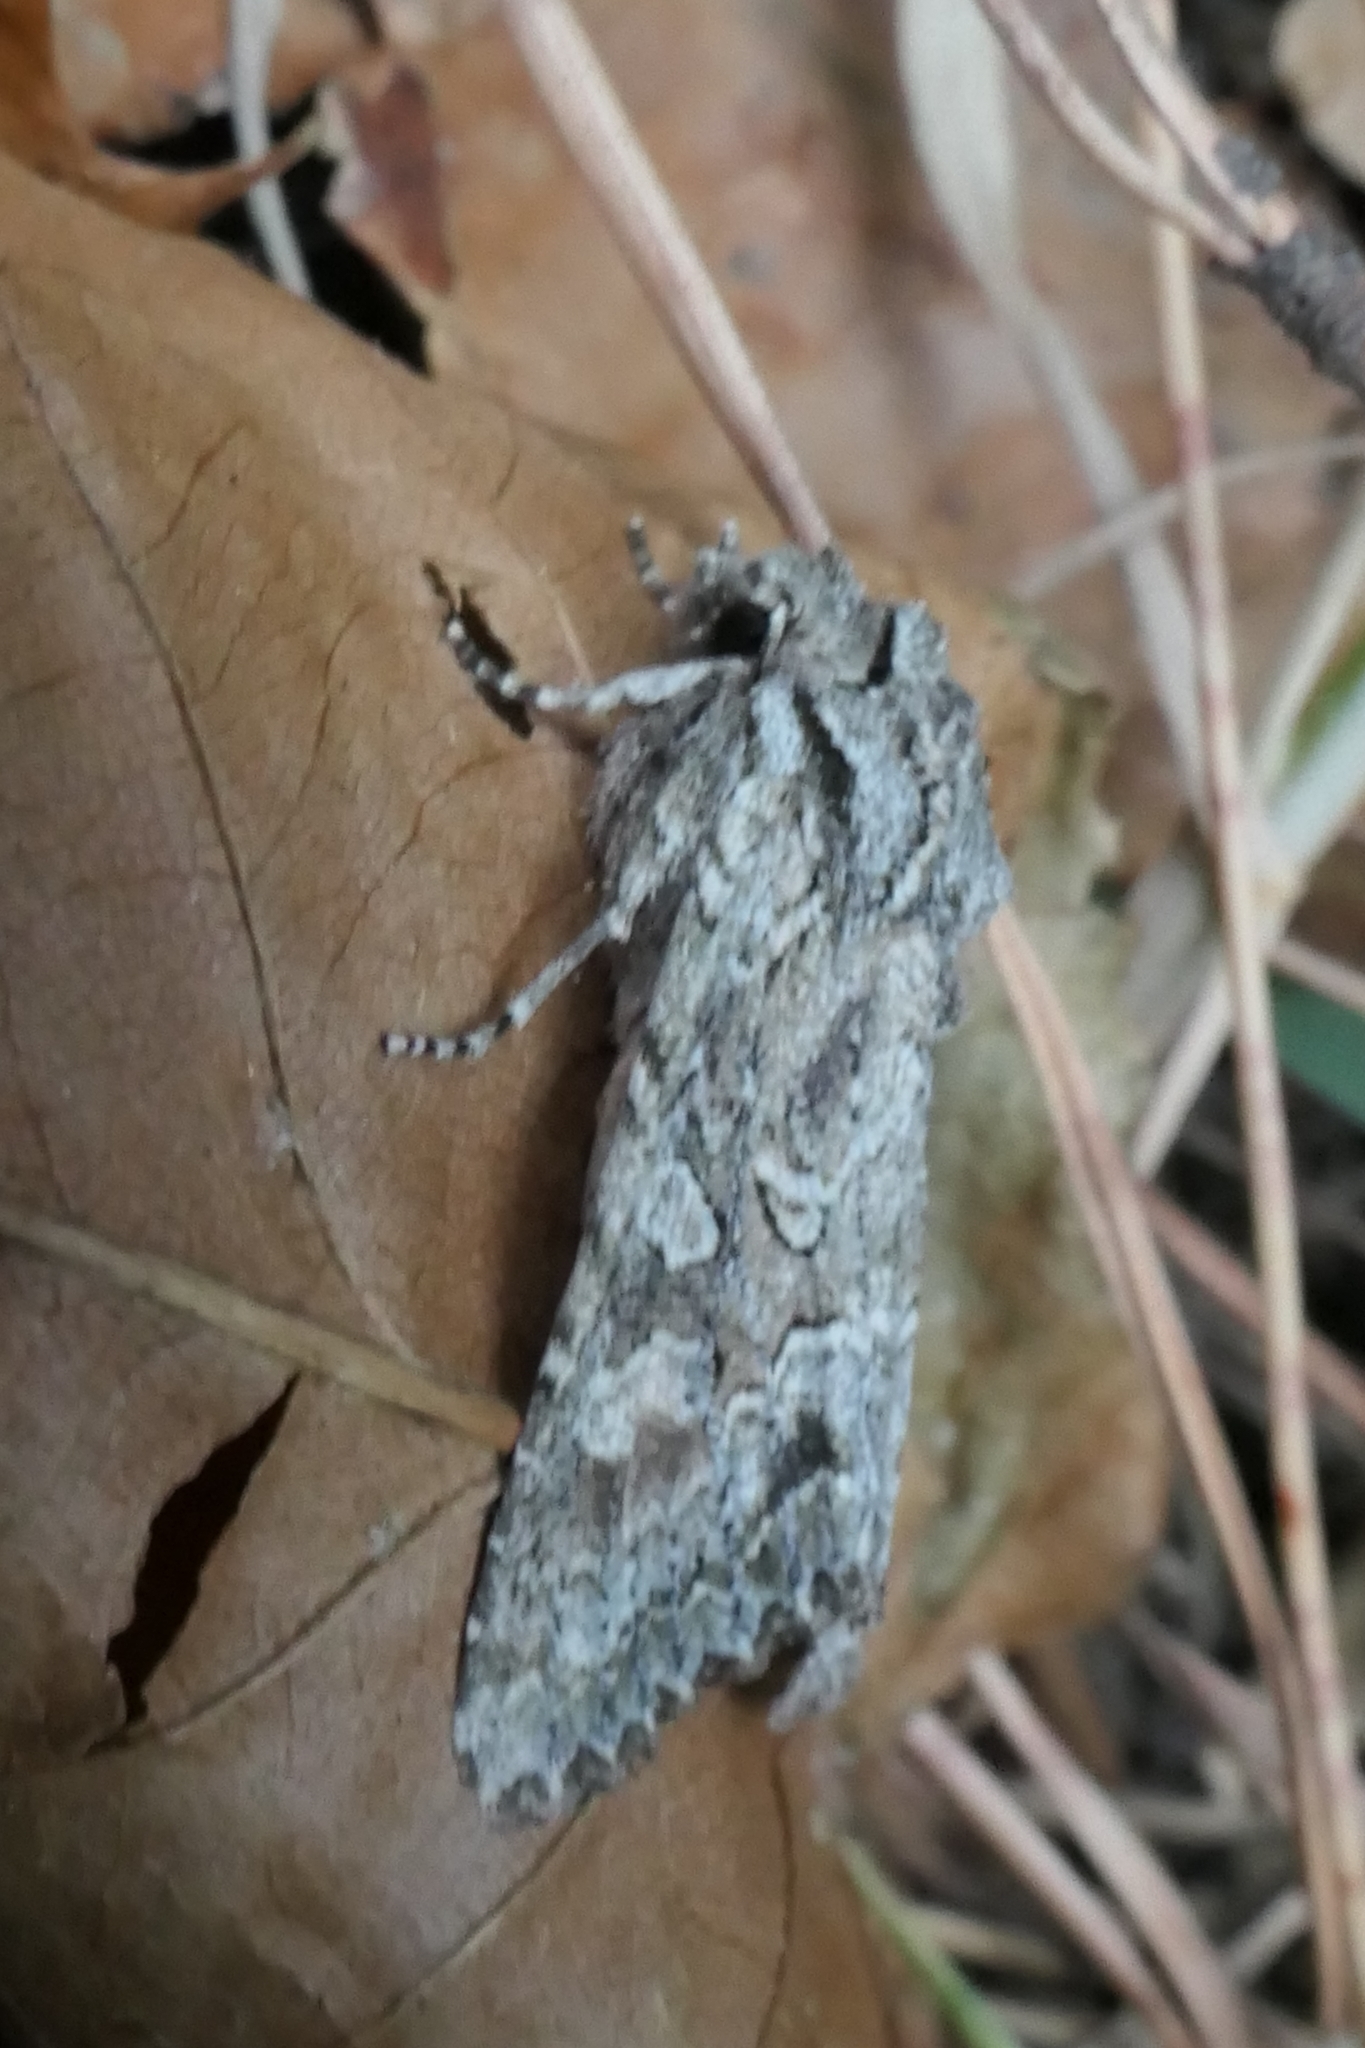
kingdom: Animalia
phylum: Arthropoda
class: Insecta
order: Lepidoptera
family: Noctuidae
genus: Ichneutica
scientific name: Ichneutica mutans
